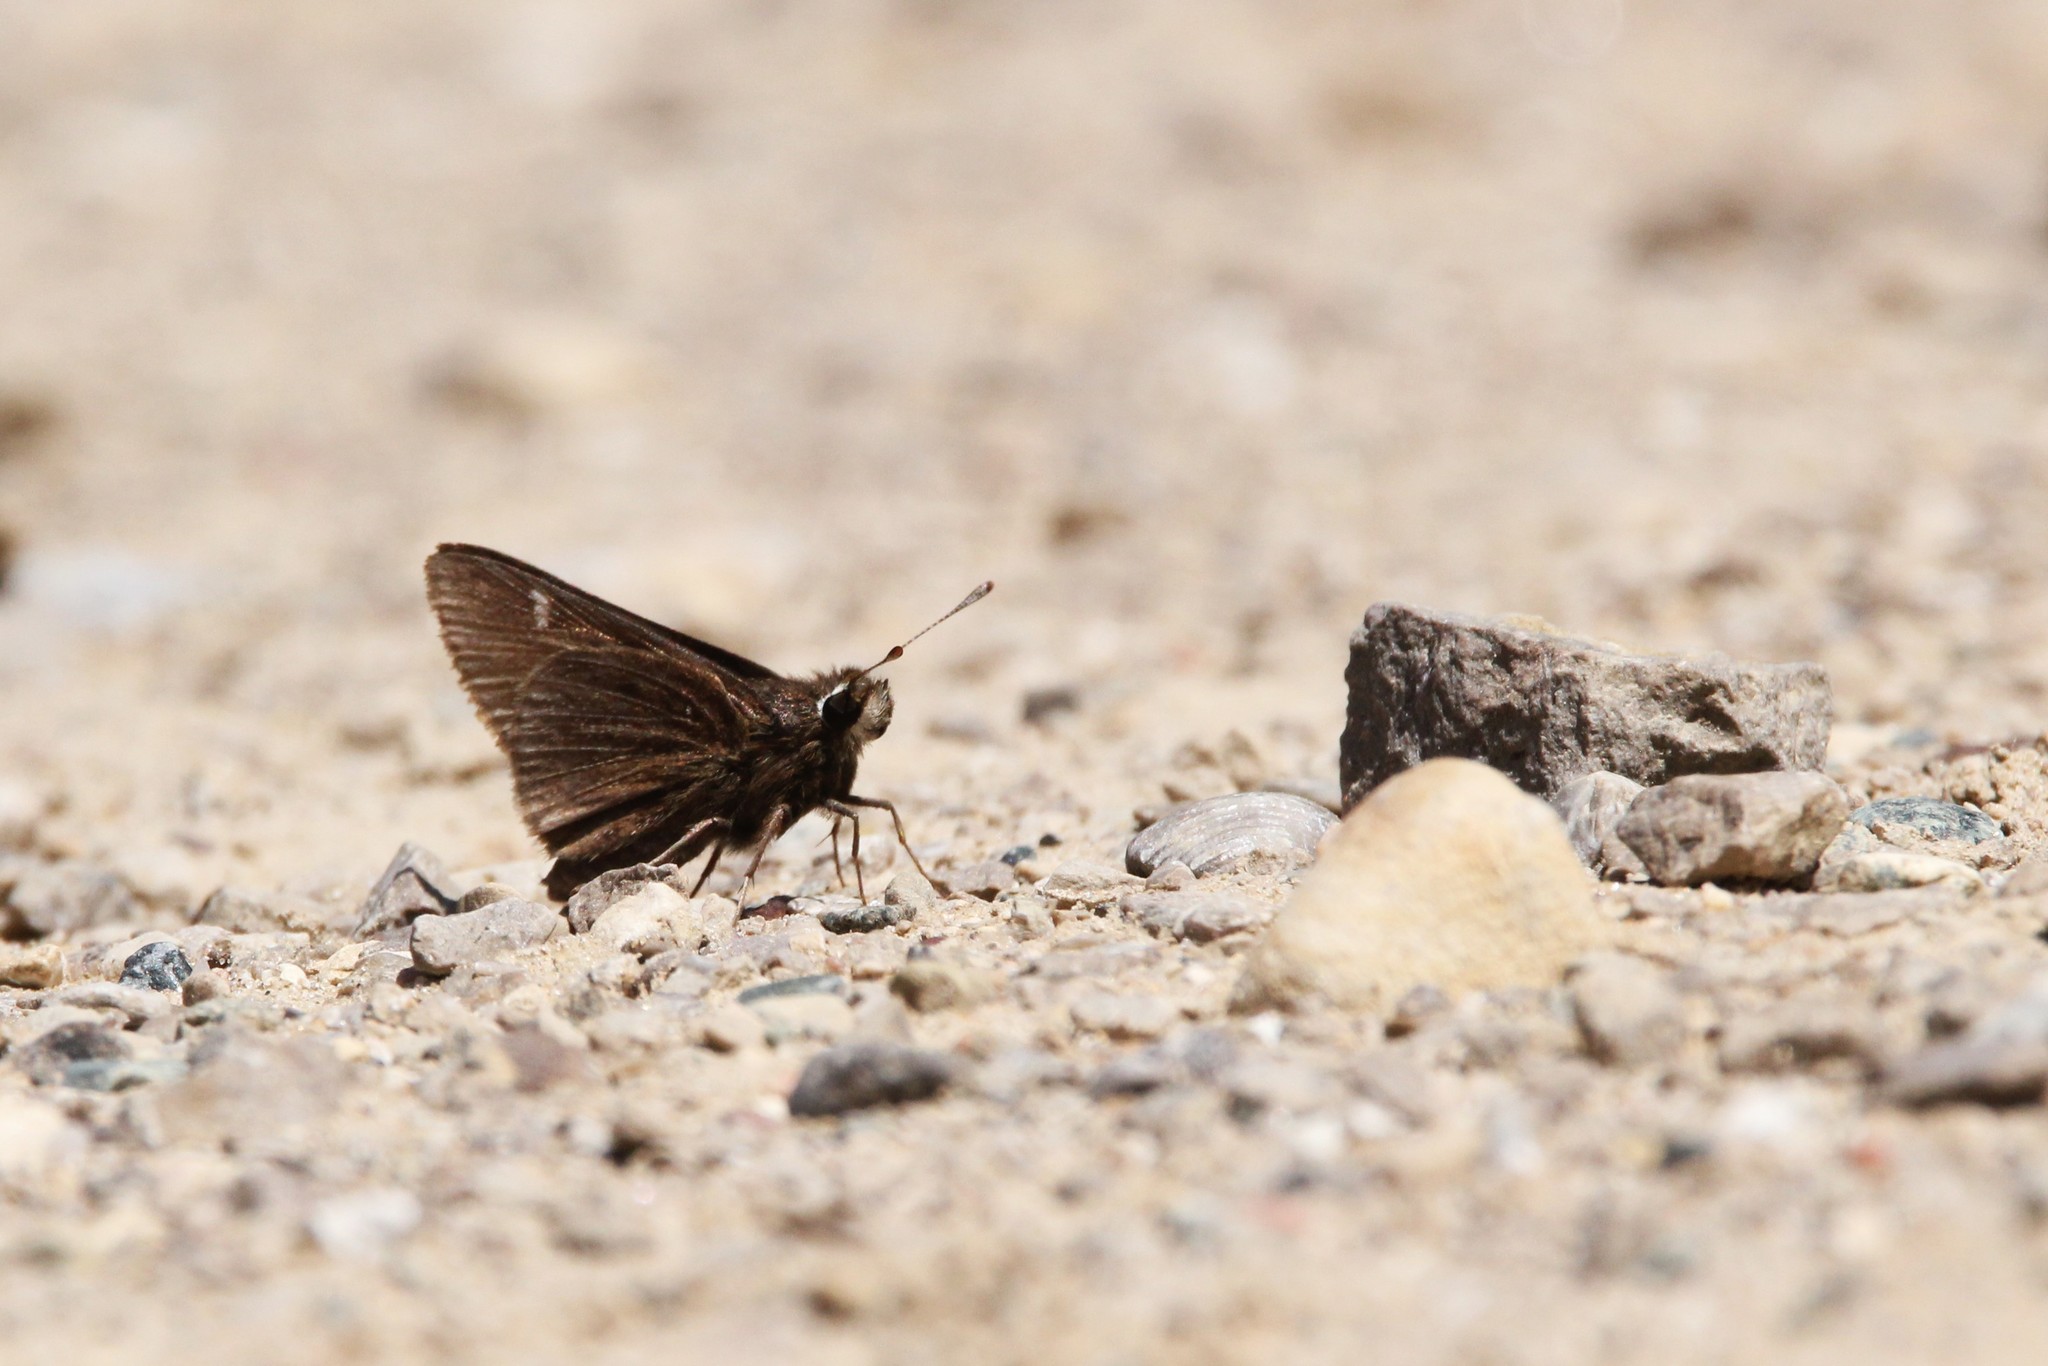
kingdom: Animalia
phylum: Arthropoda
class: Insecta
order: Lepidoptera
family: Hesperiidae
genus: Atrytonopsis
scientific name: Atrytonopsis hianna
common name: Dusted skipper
